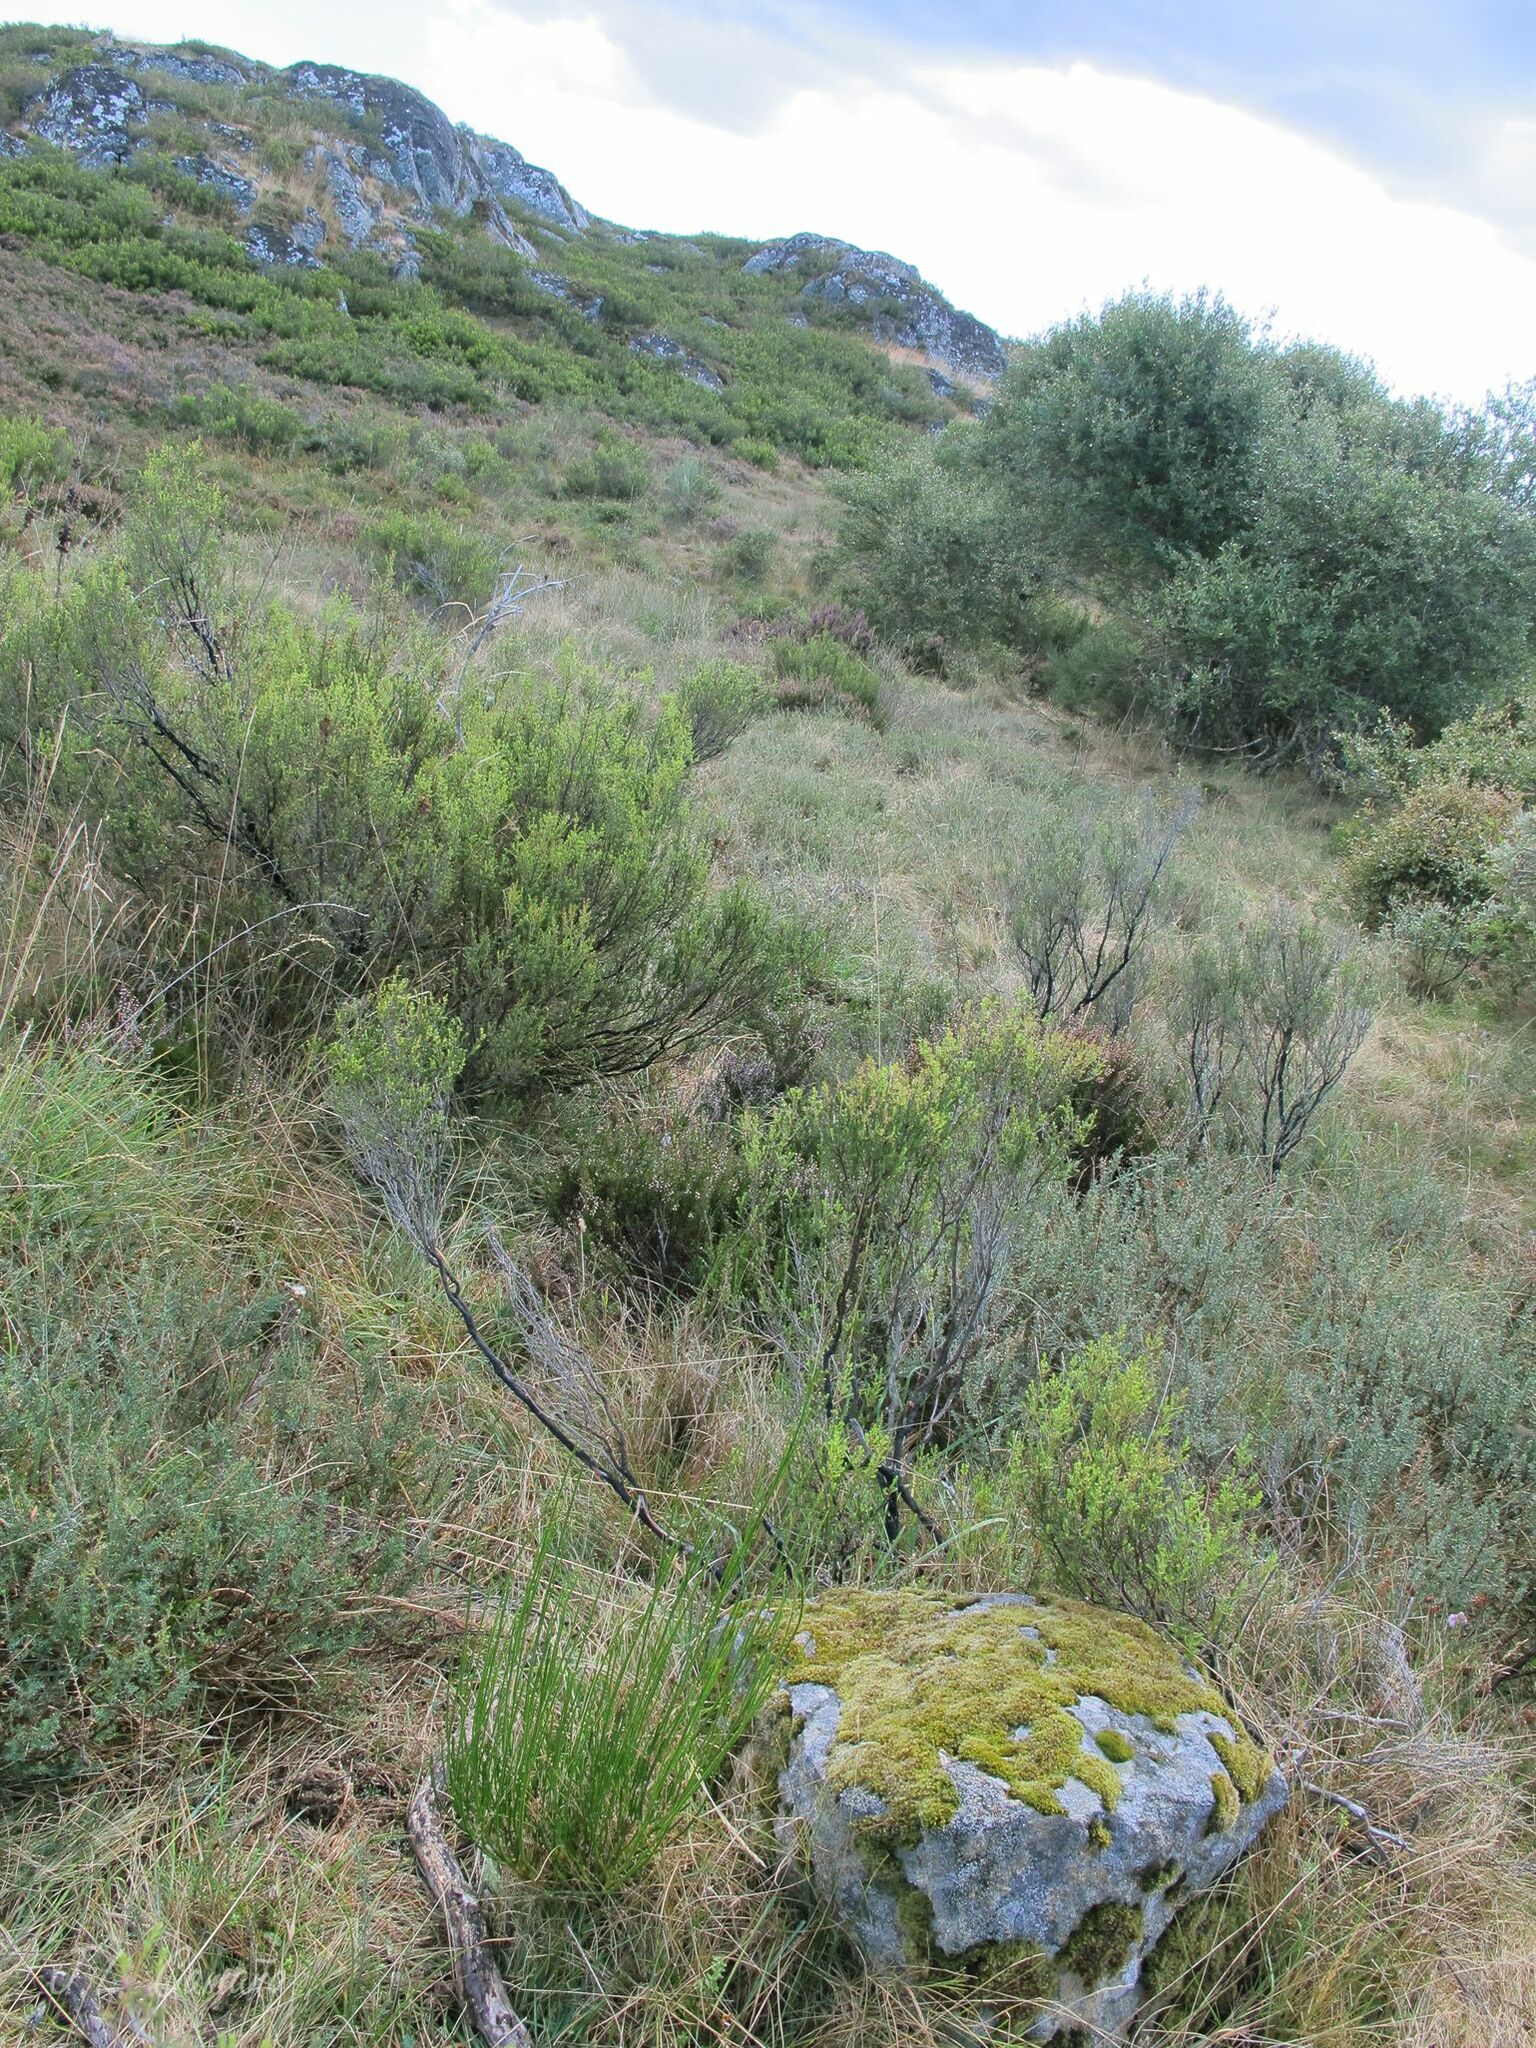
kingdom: Plantae
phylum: Bryophyta
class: Bryopsida
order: Hedwigiales
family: Hedwigiaceae
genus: Hedwigia
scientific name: Hedwigia ciliata
